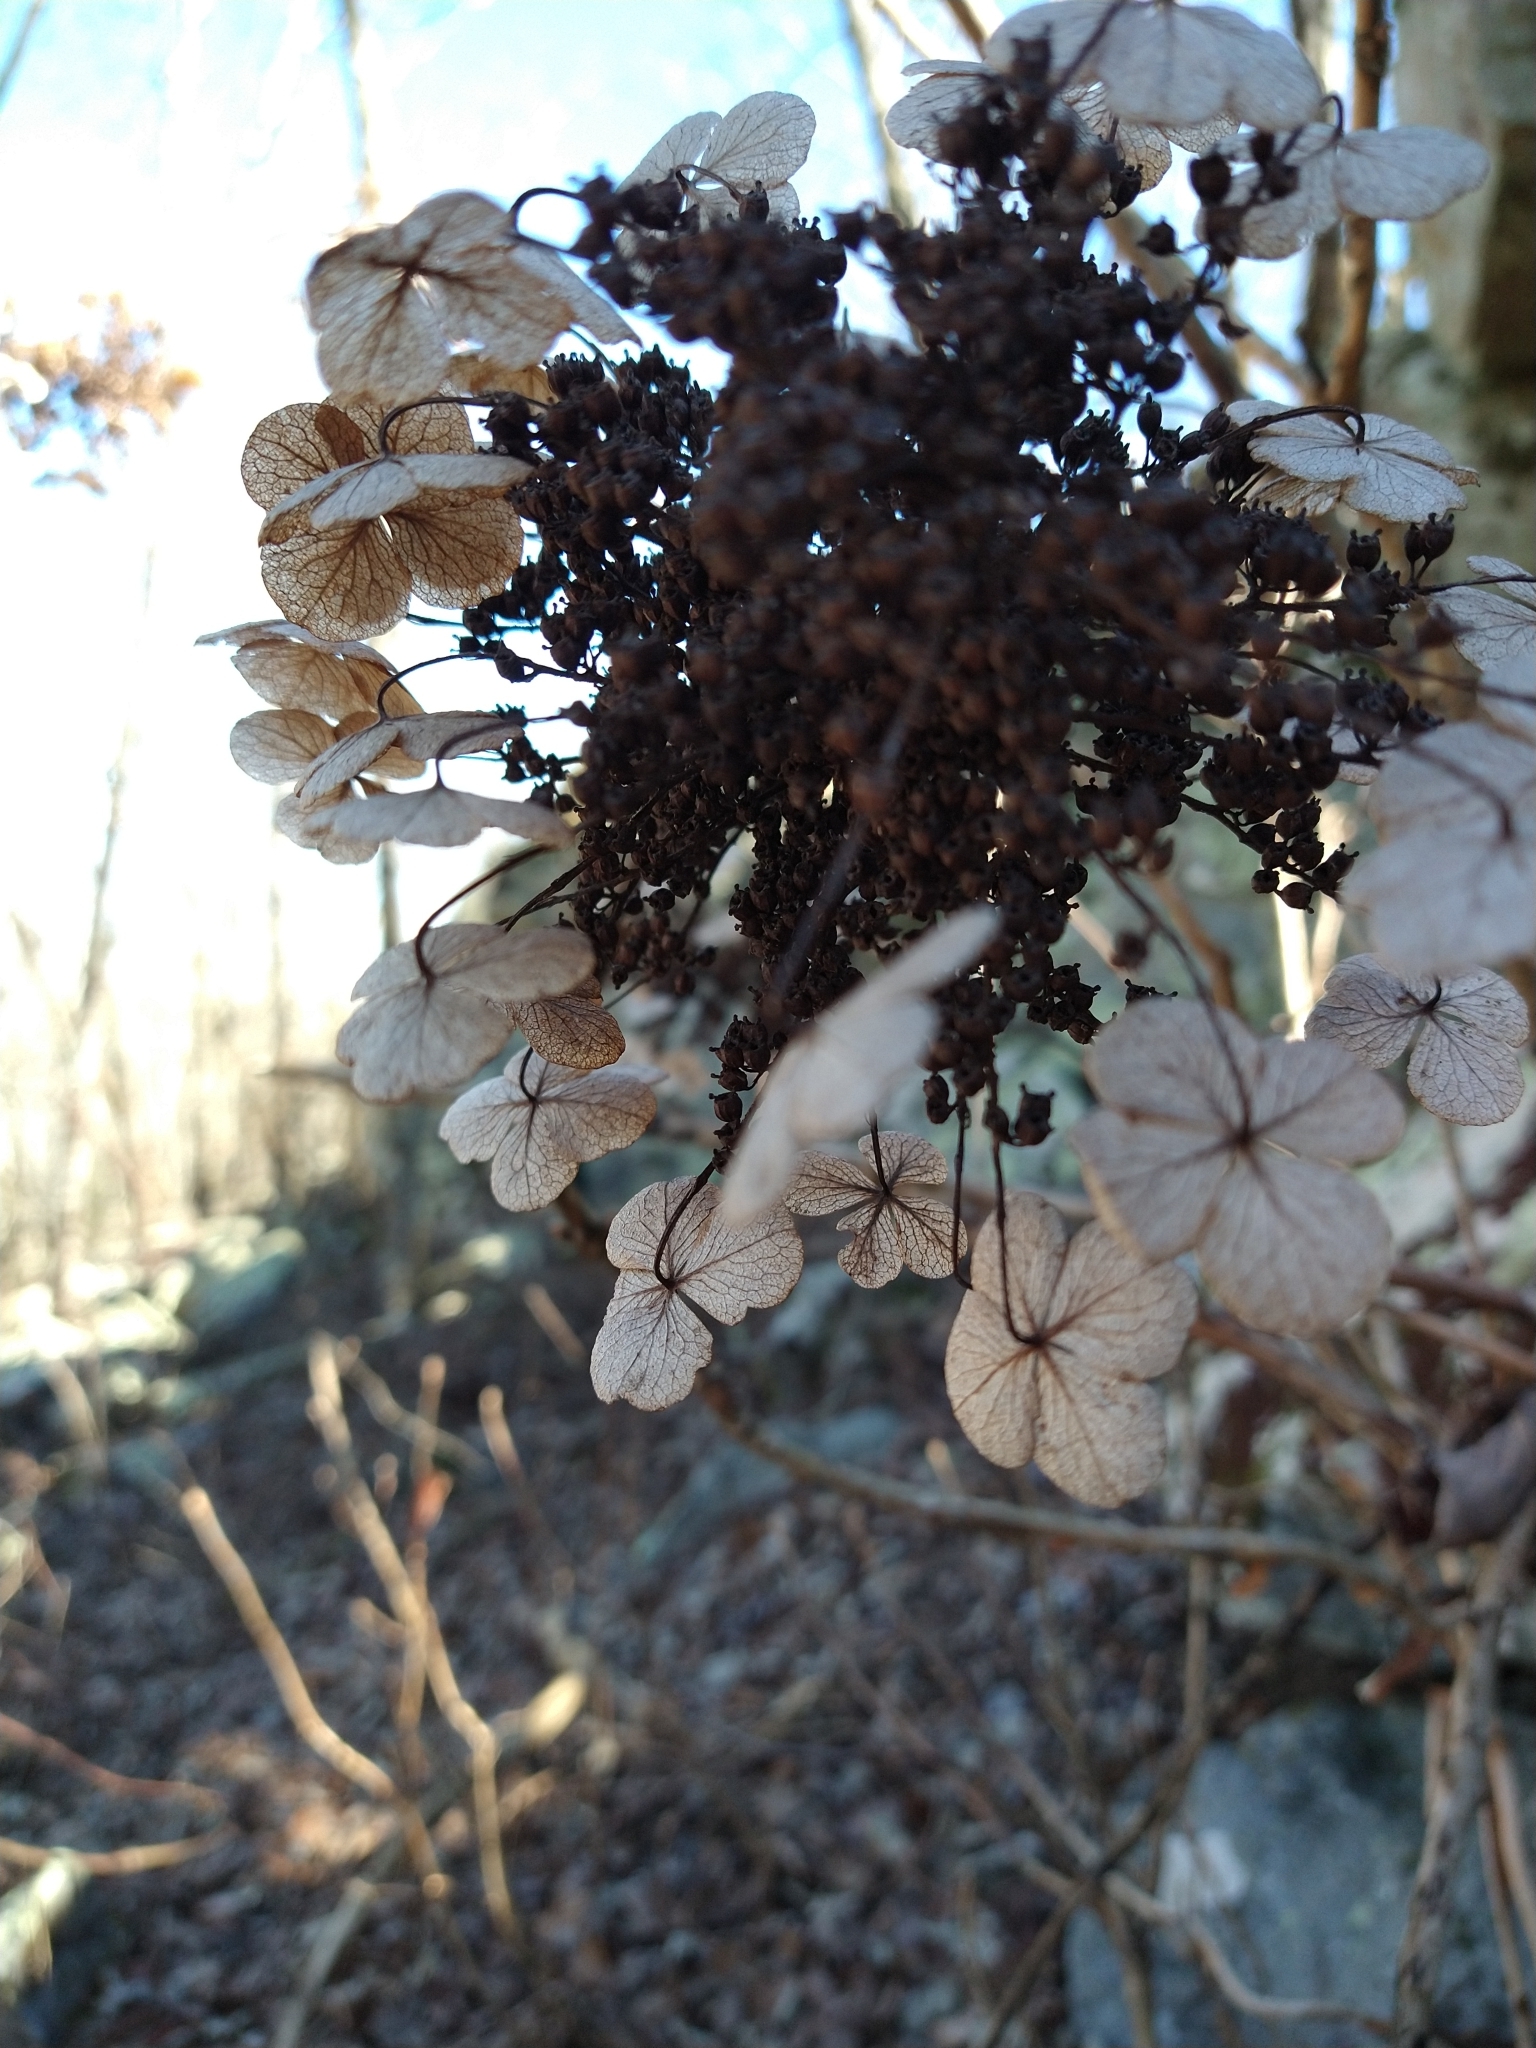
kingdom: Plantae
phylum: Tracheophyta
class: Magnoliopsida
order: Cornales
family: Hydrangeaceae
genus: Hydrangea
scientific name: Hydrangea quercifolia
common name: Oak-leaf hydrangea
